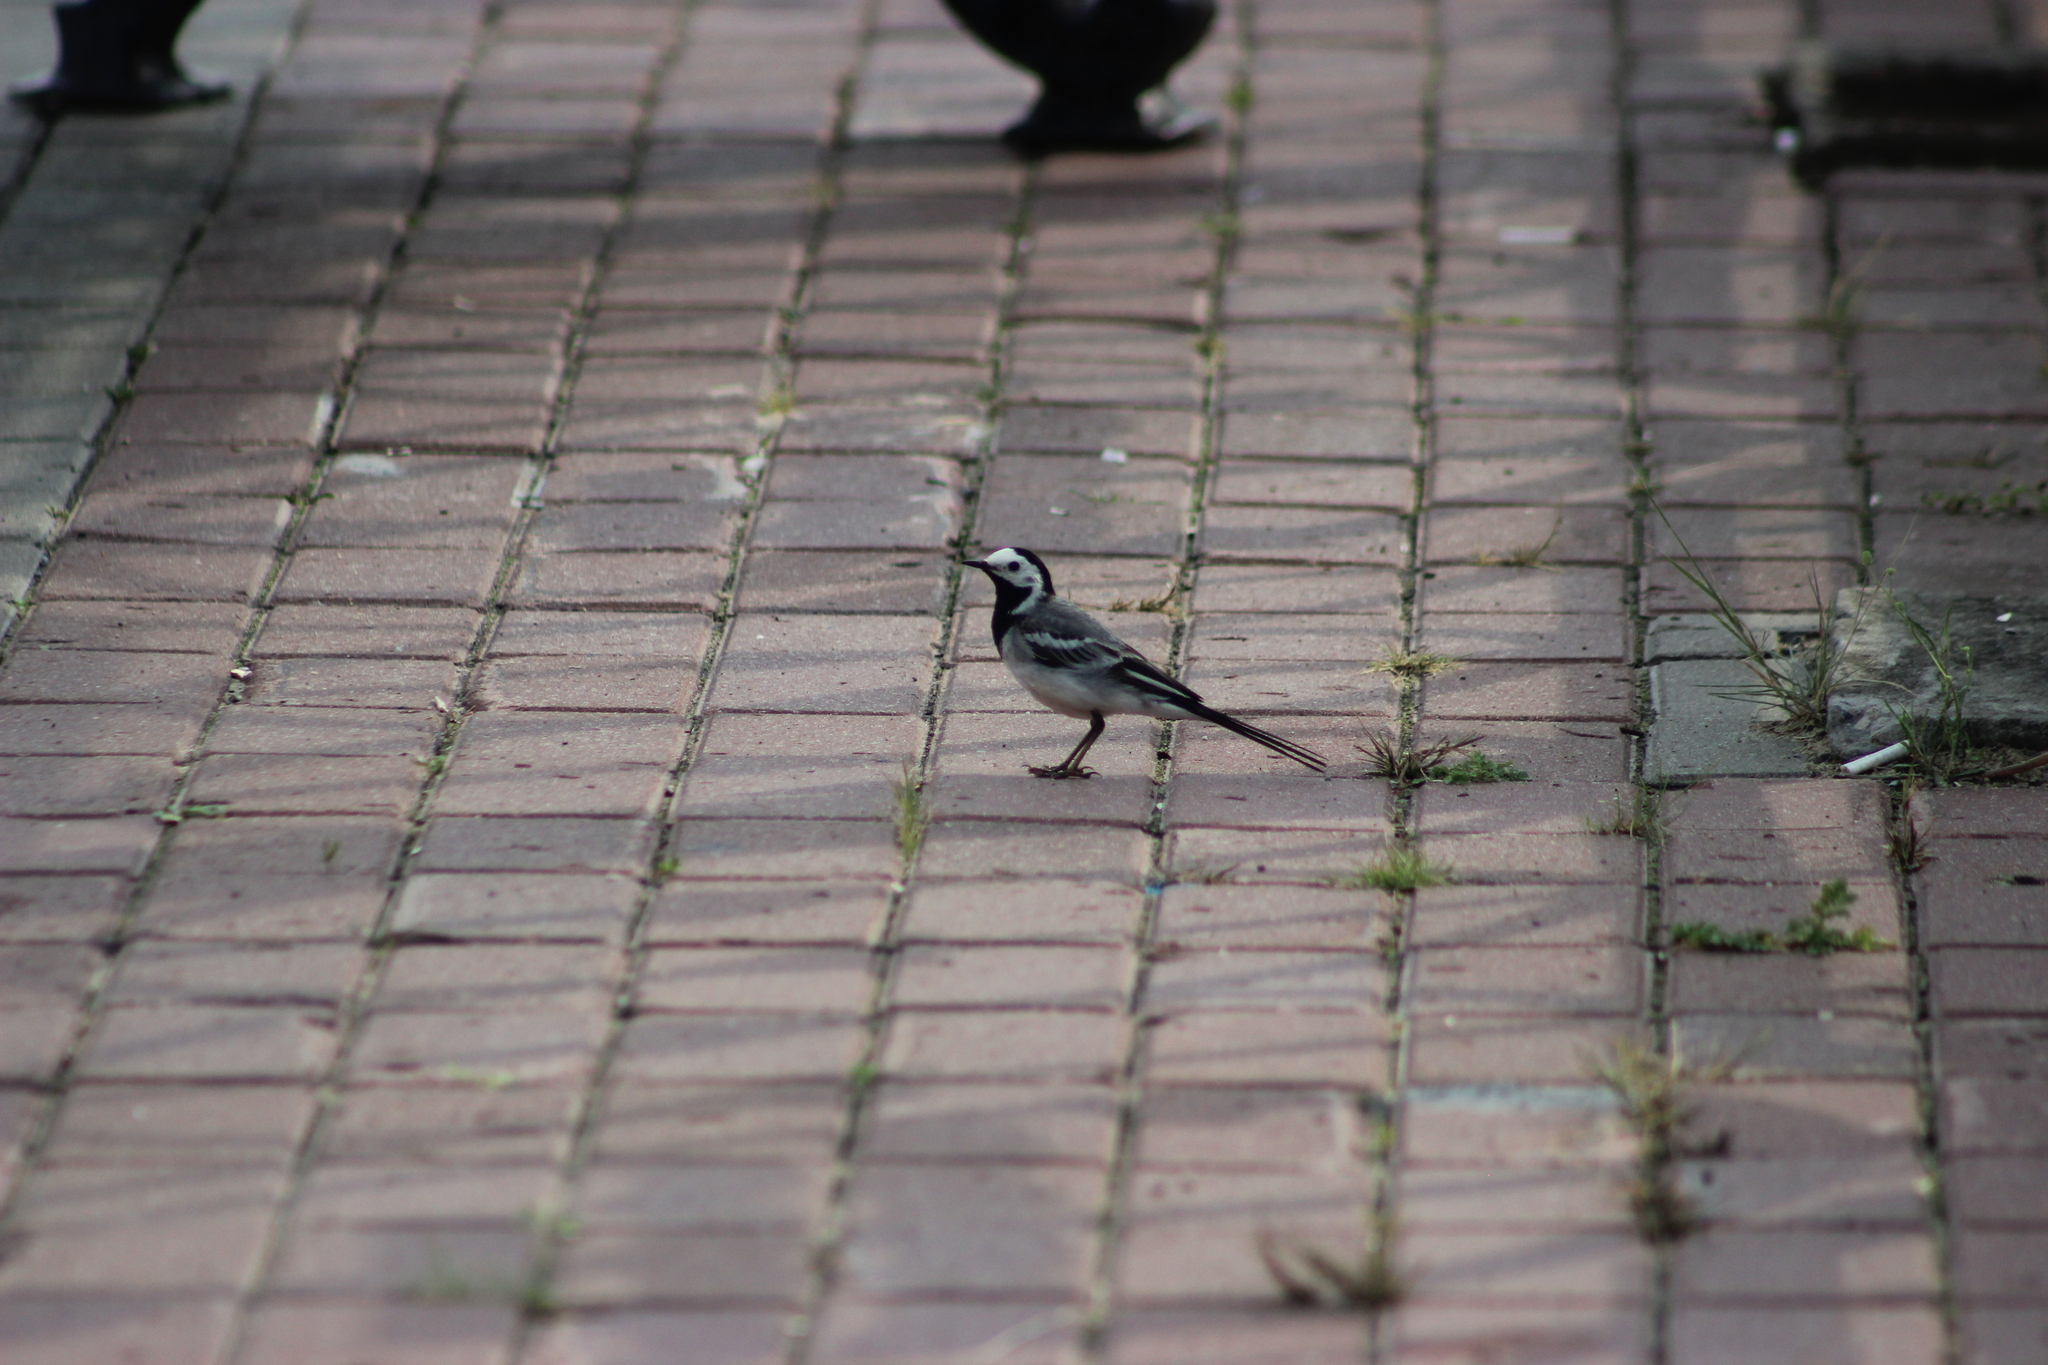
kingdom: Animalia
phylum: Chordata
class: Aves
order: Passeriformes
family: Motacillidae
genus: Motacilla
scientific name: Motacilla alba
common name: White wagtail
